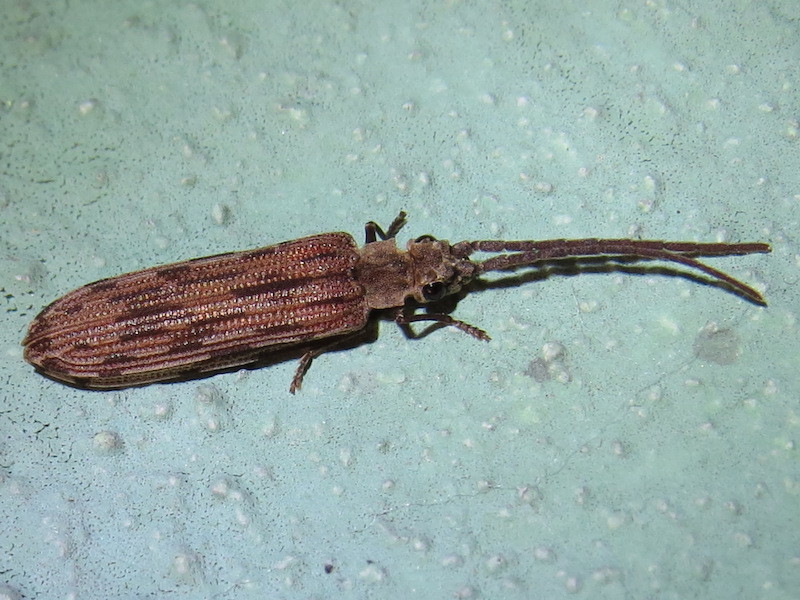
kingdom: Animalia
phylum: Arthropoda
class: Insecta
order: Coleoptera
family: Cupedidae
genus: Tenomerga
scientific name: Tenomerga cinerea
